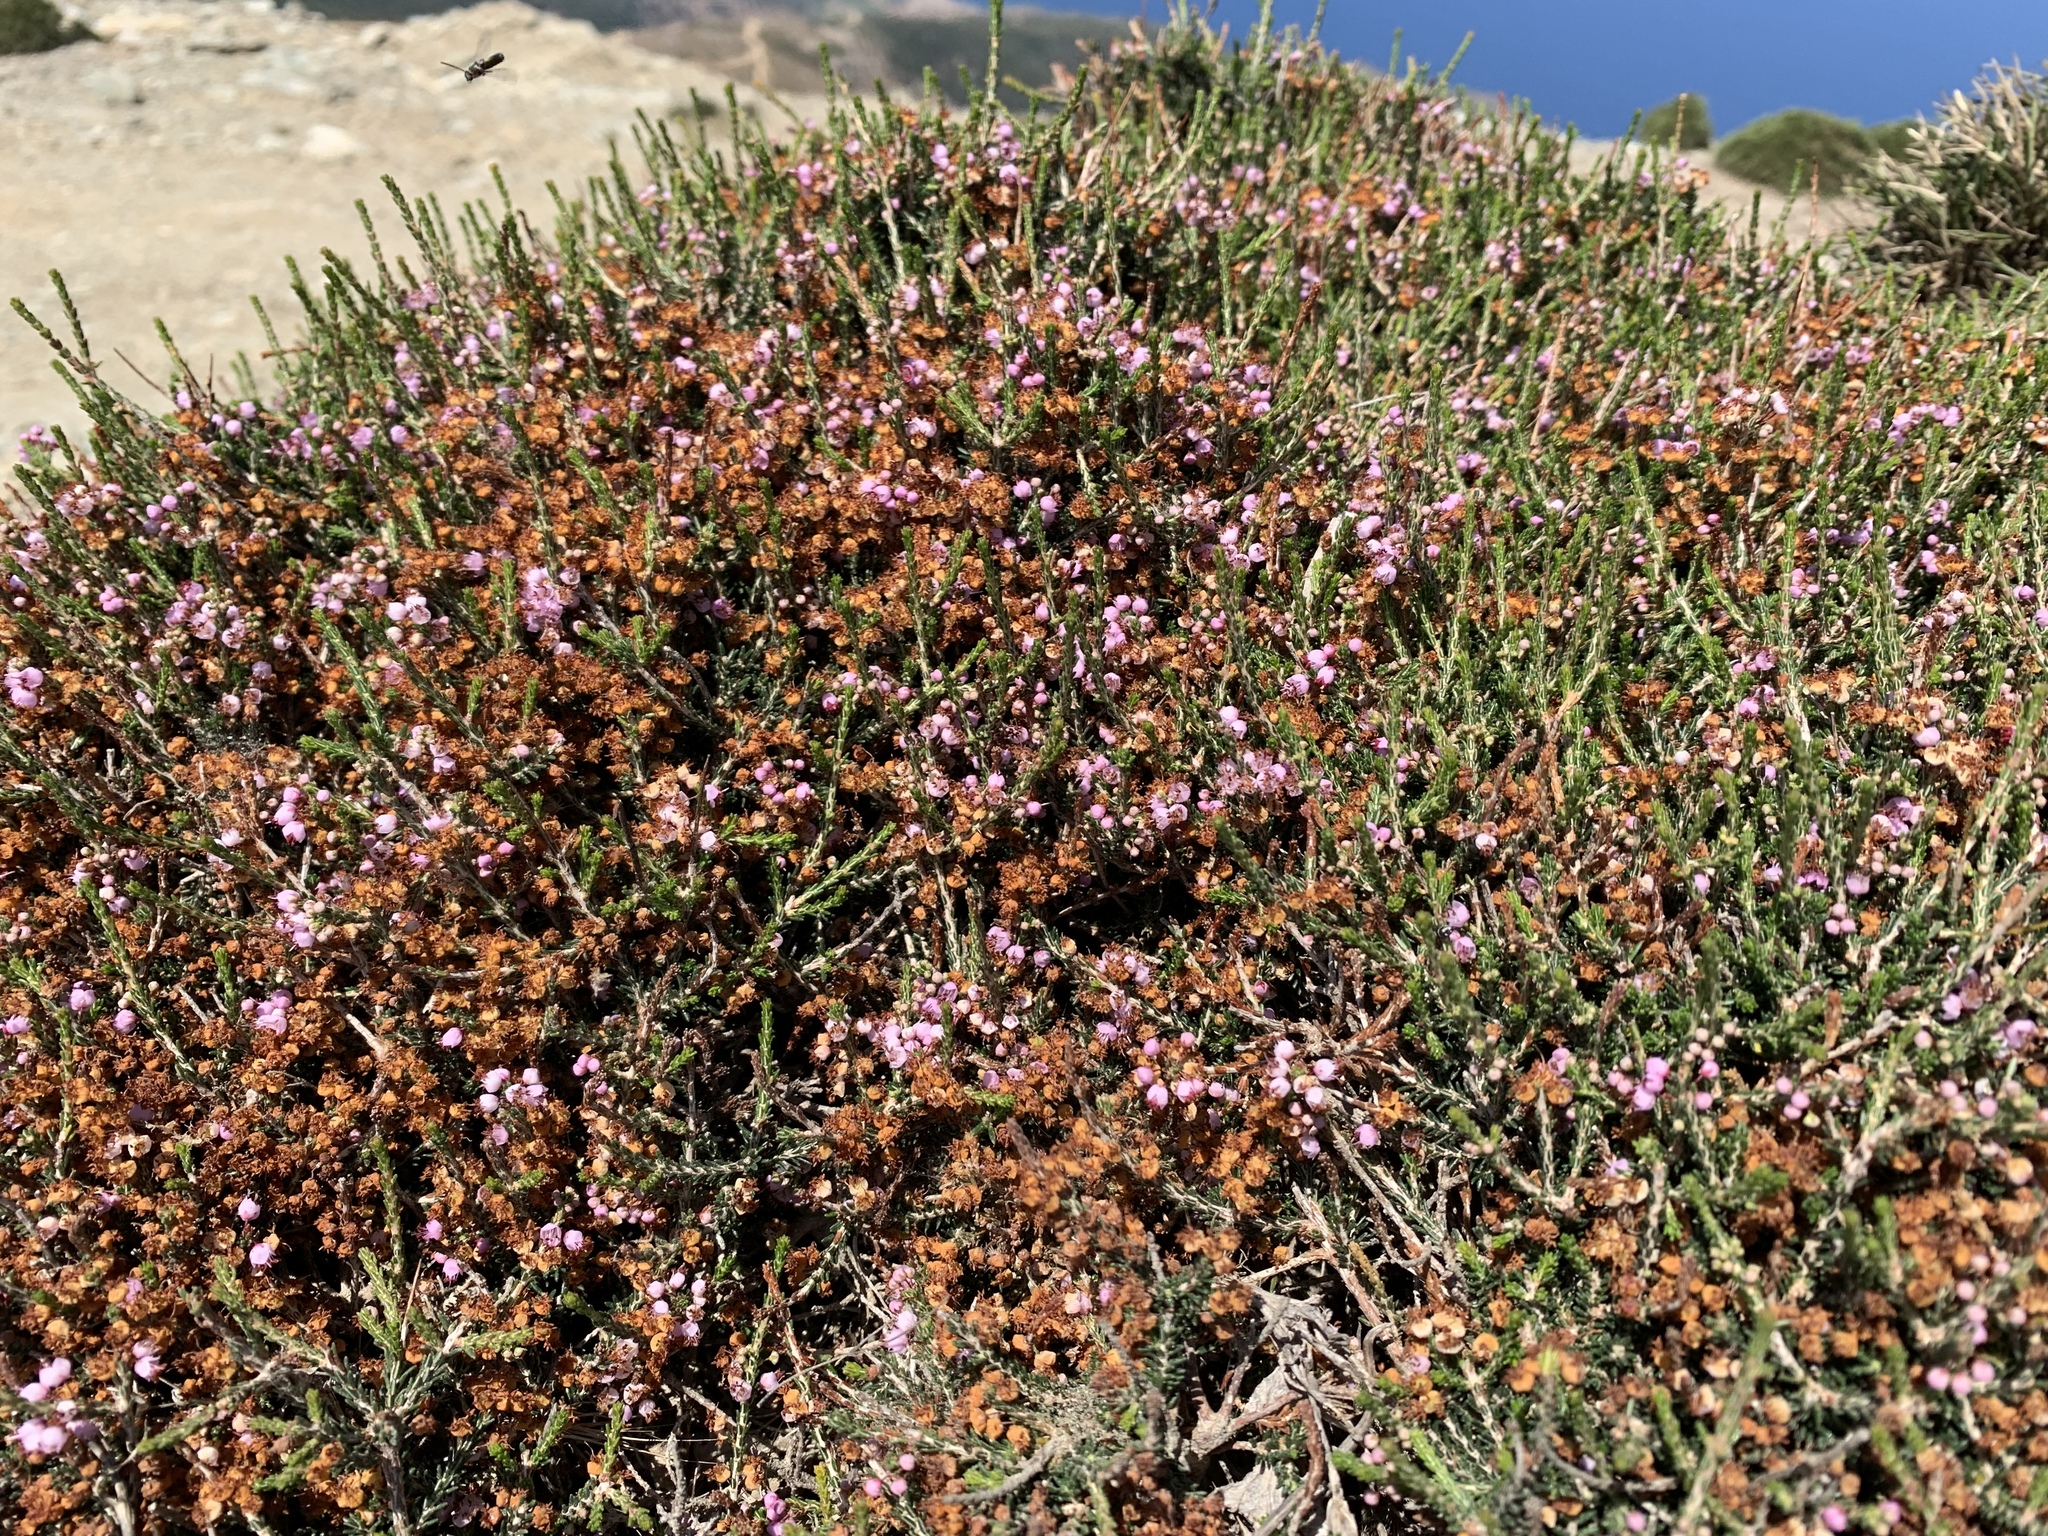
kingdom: Plantae
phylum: Tracheophyta
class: Magnoliopsida
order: Ericales
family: Ericaceae
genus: Erica
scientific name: Erica manipuliflora
